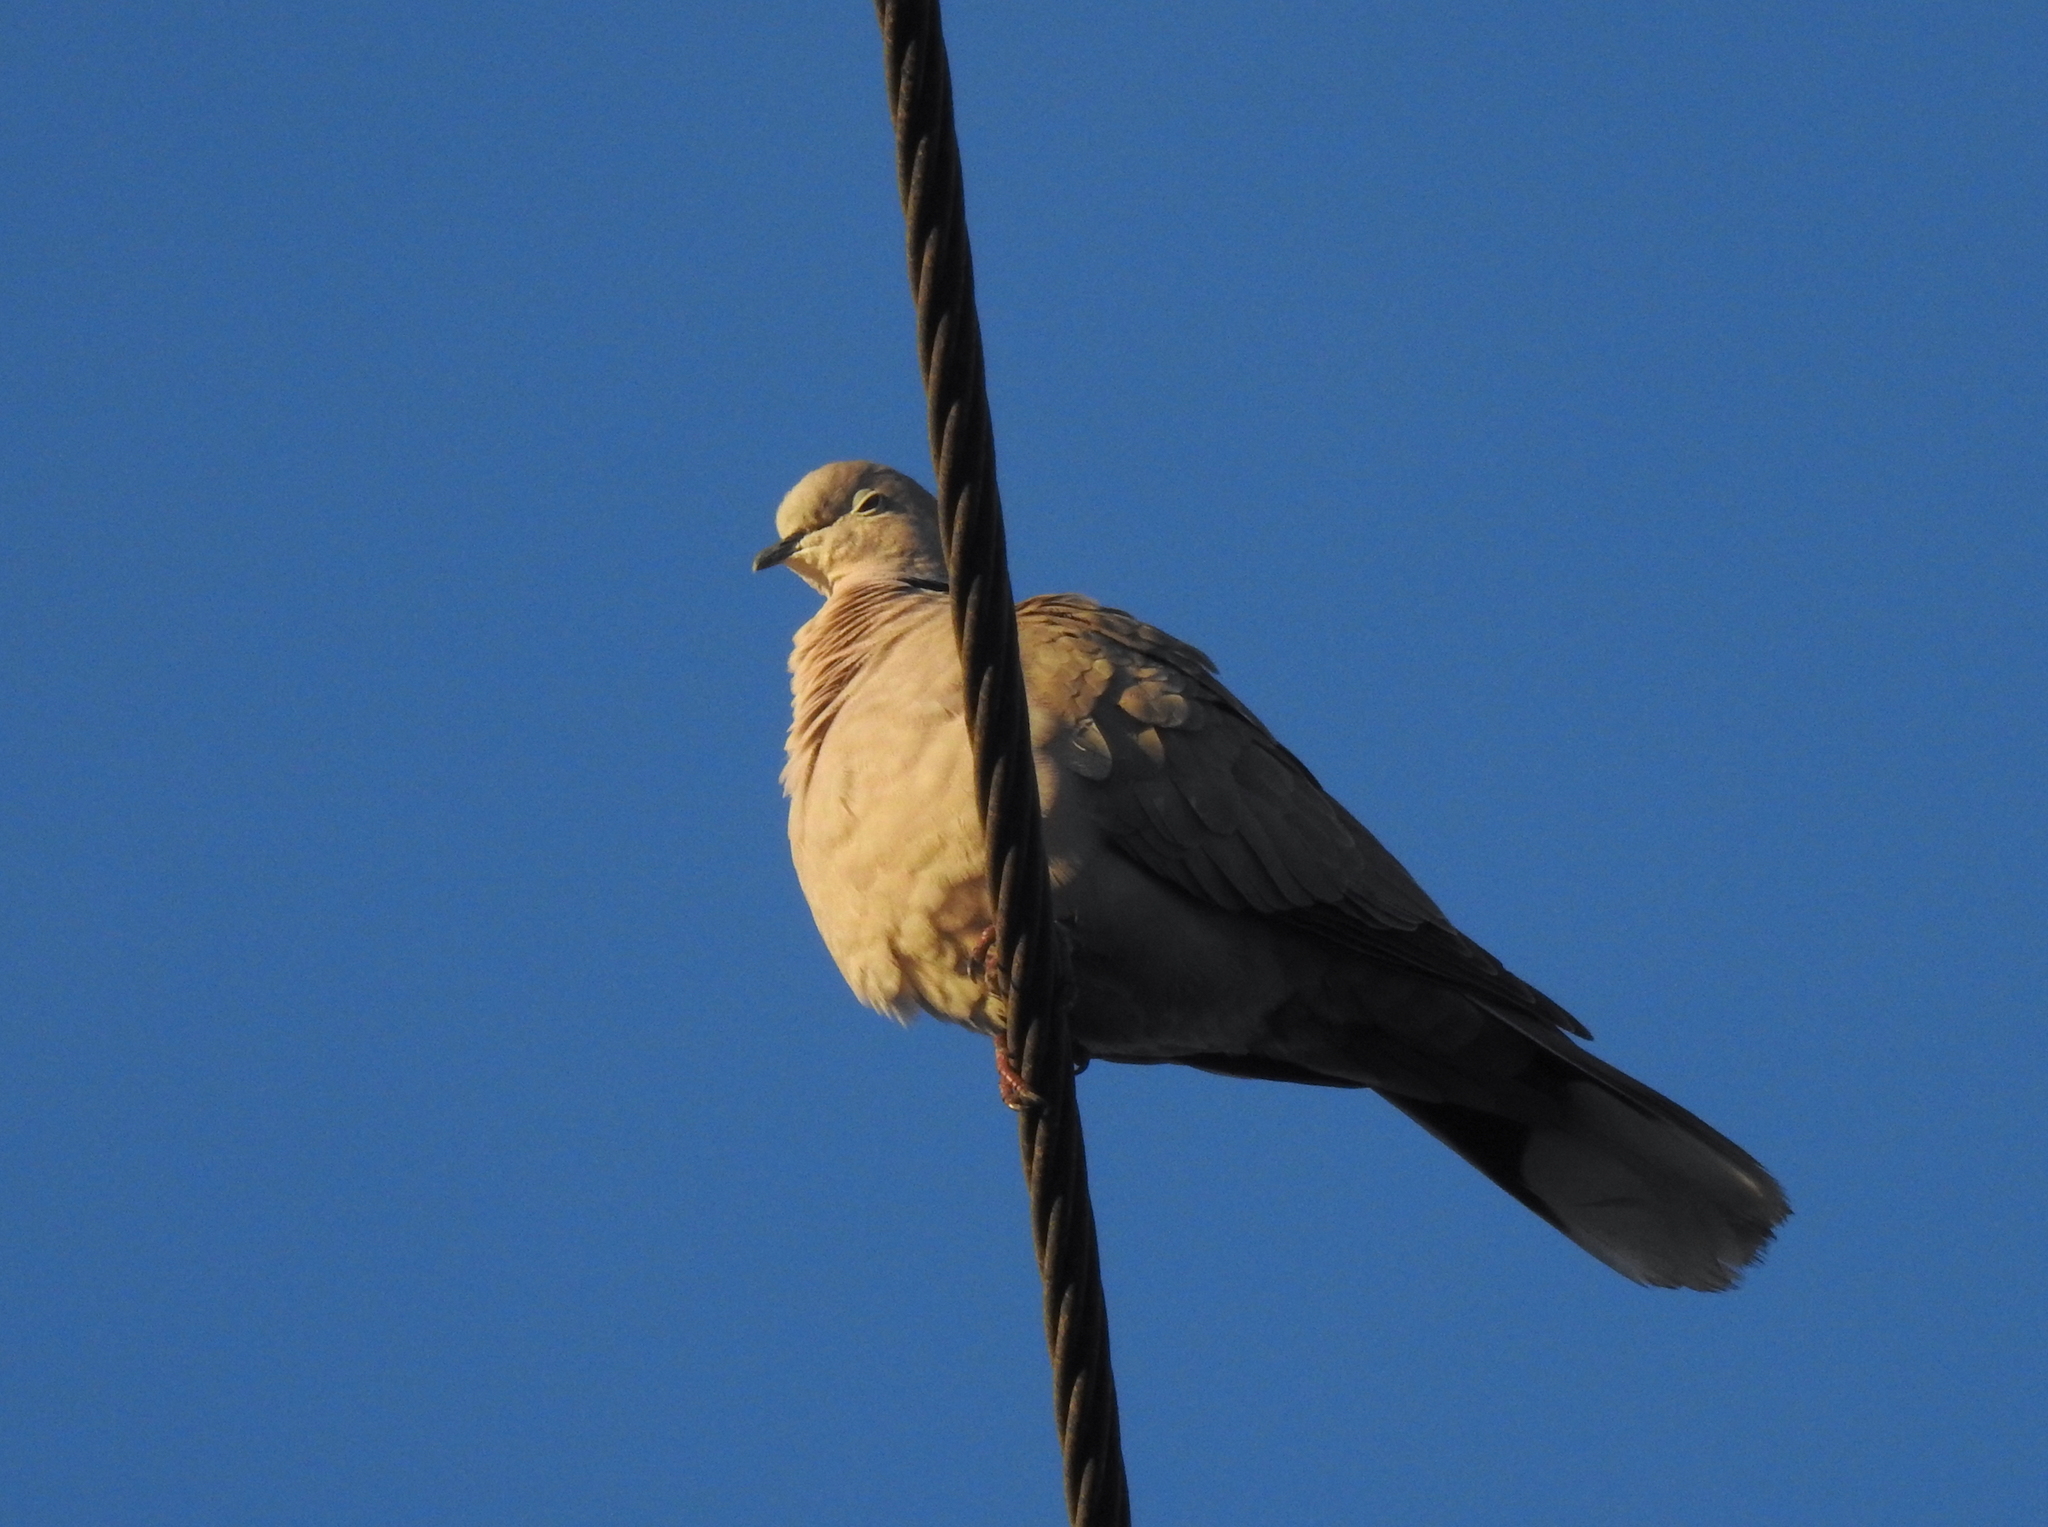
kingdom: Animalia
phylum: Chordata
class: Aves
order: Columbiformes
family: Columbidae
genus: Streptopelia
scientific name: Streptopelia decaocto
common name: Eurasian collared dove
